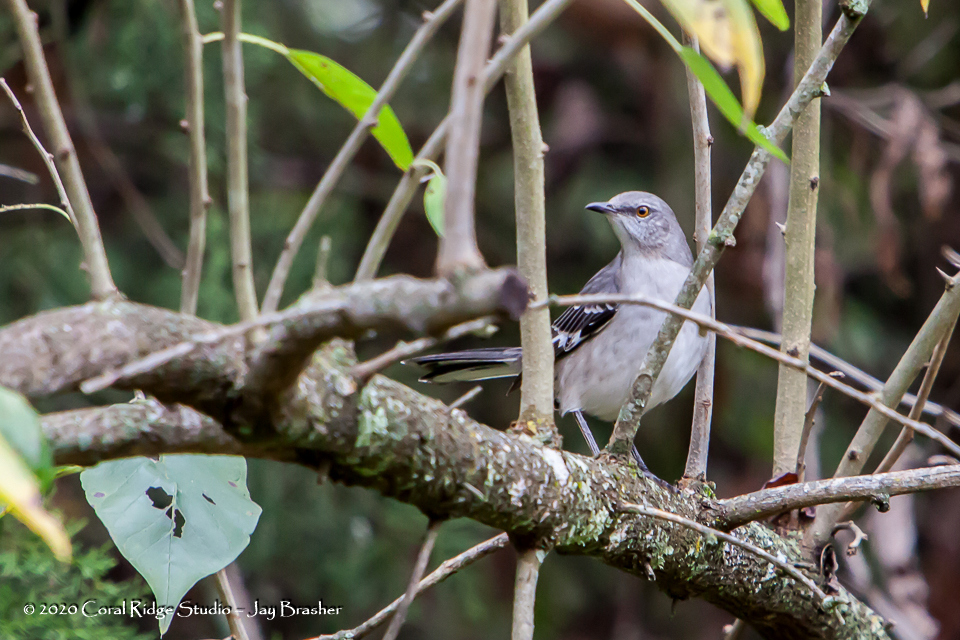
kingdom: Animalia
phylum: Chordata
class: Aves
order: Passeriformes
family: Mimidae
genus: Mimus
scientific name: Mimus polyglottos
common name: Northern mockingbird
